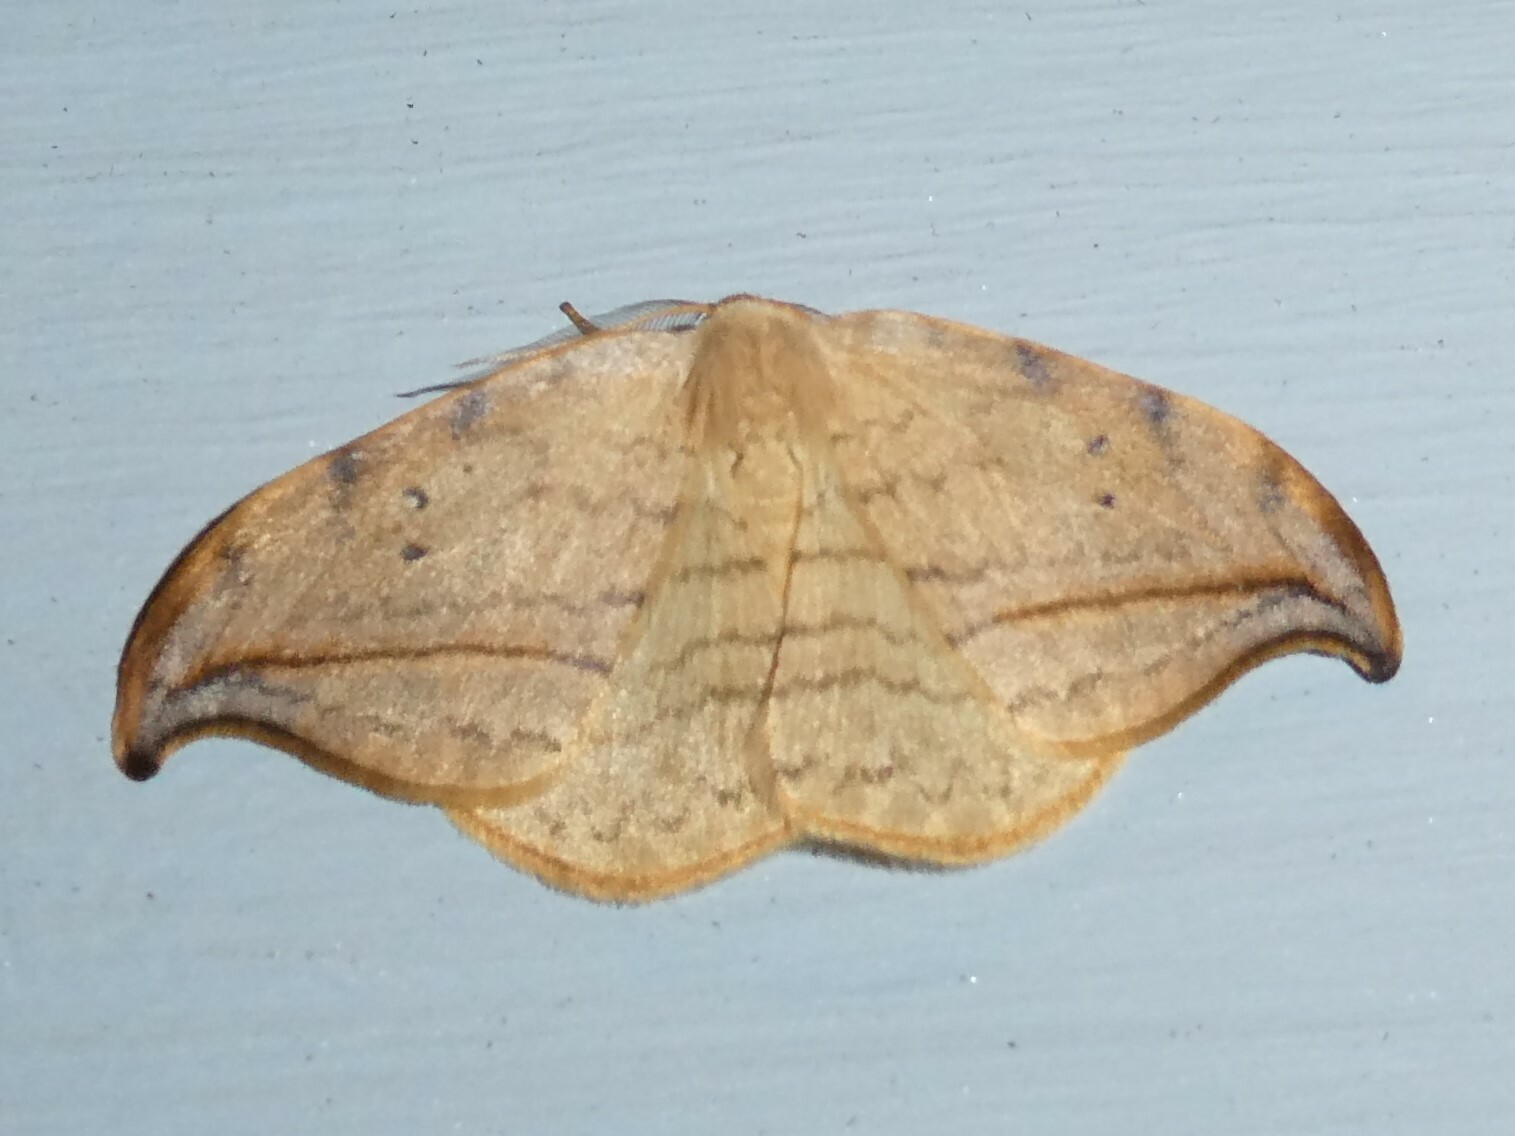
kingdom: Animalia
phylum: Arthropoda
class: Insecta
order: Lepidoptera
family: Drepanidae
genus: Drepana
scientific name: Drepana arcuata
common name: Arched hooktip moth
